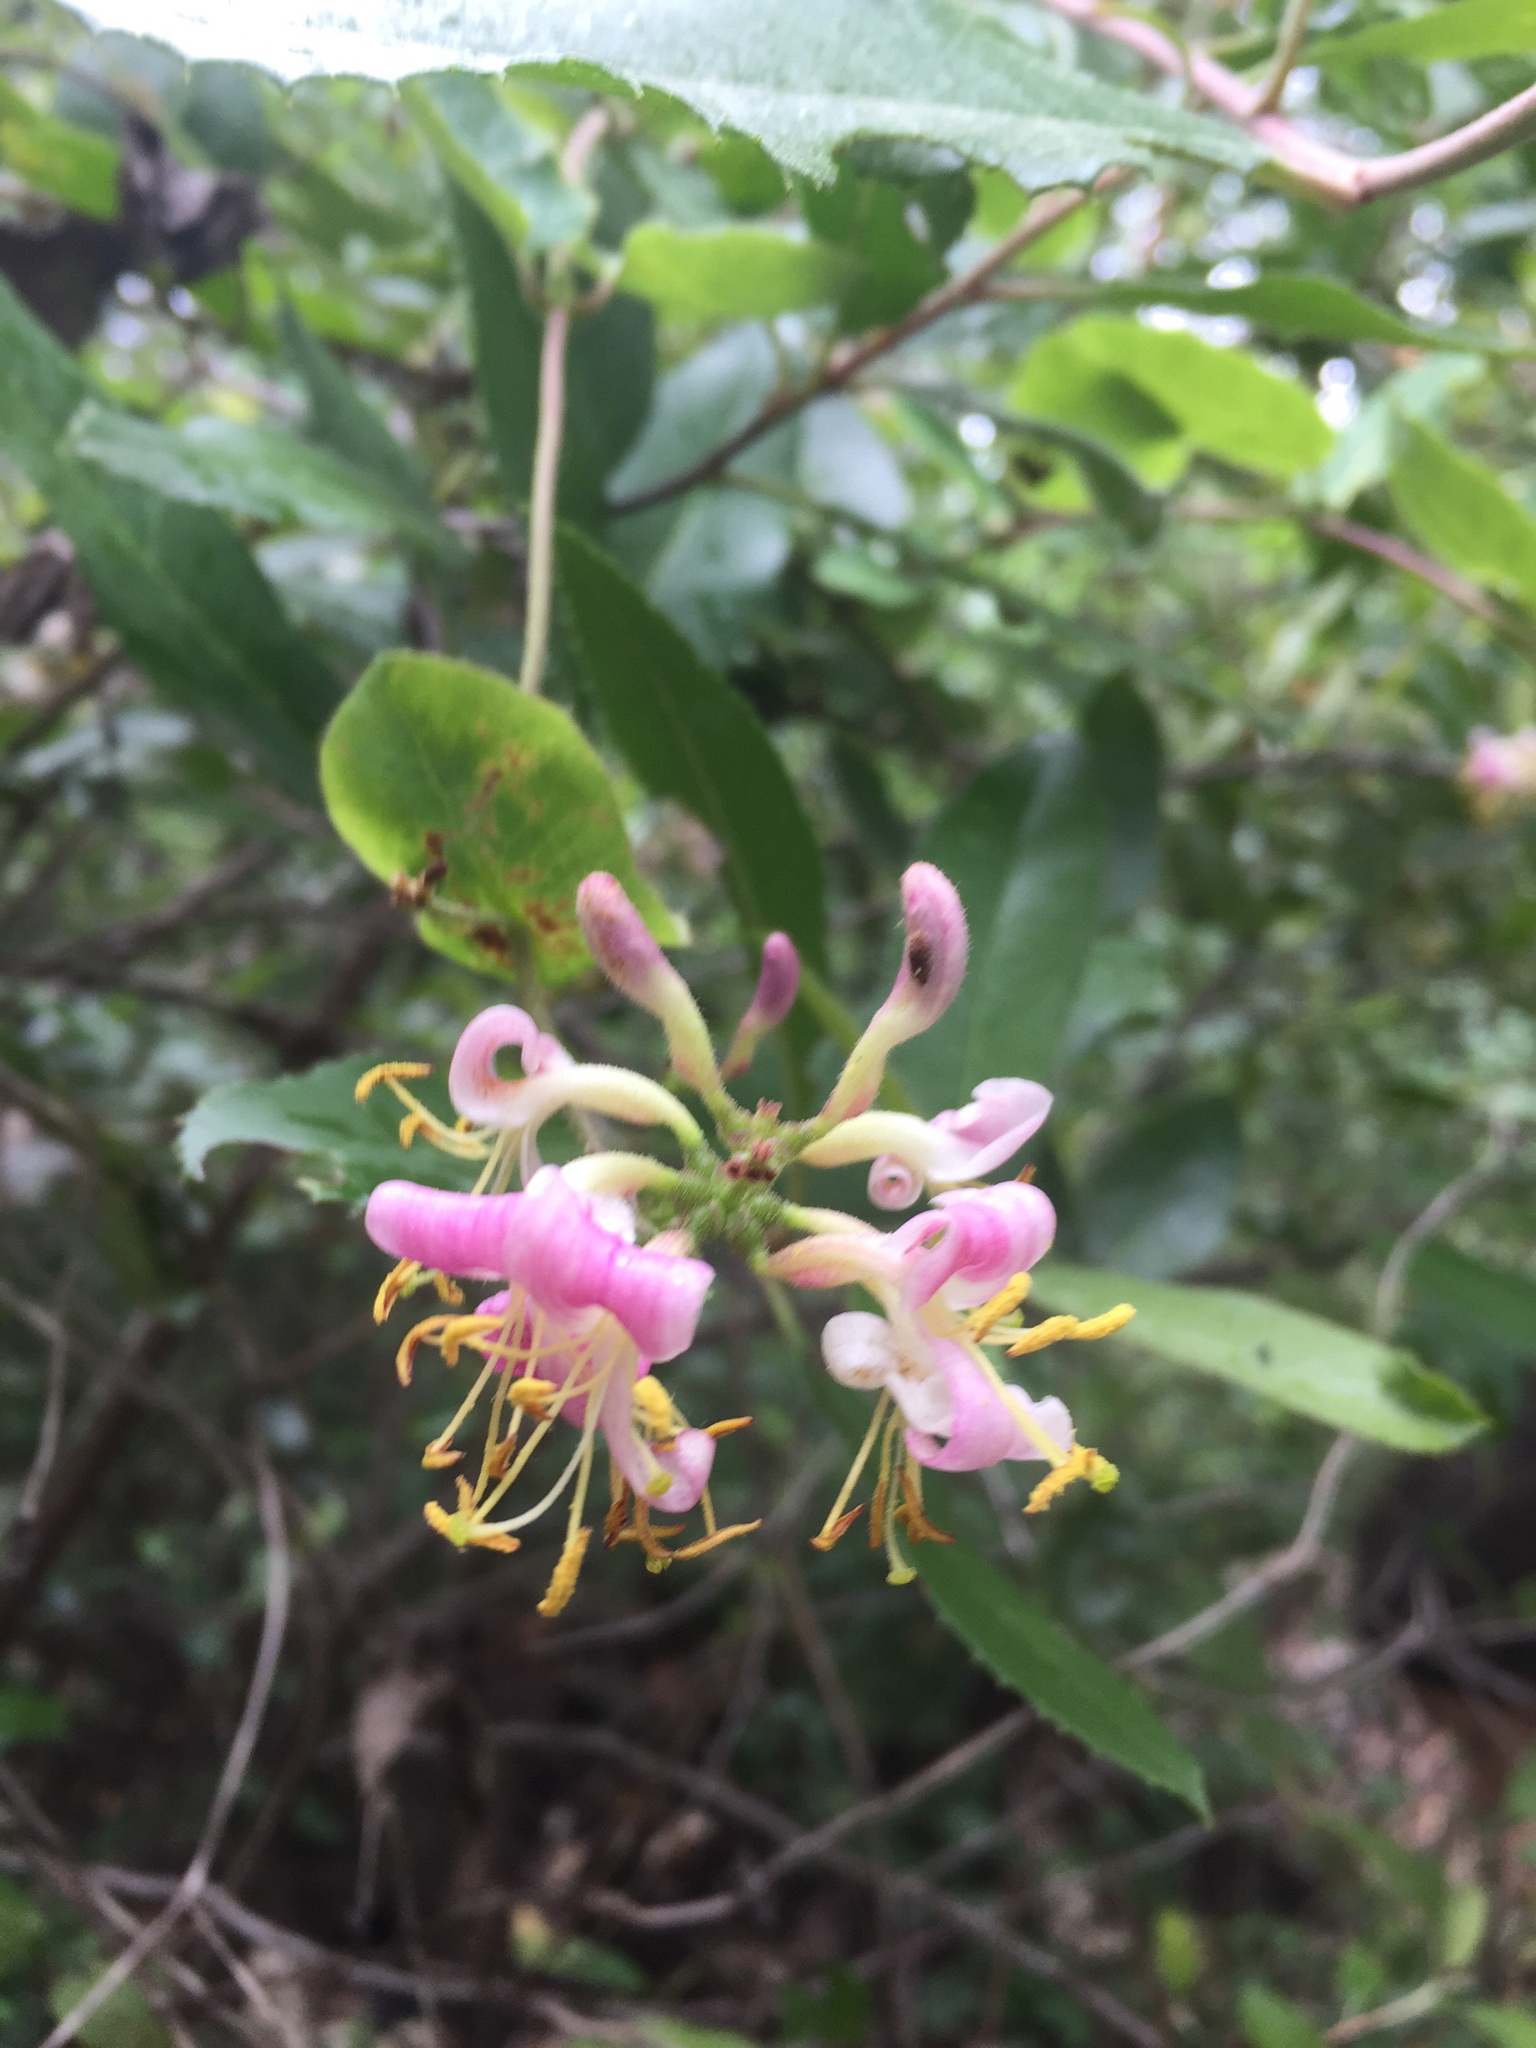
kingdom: Plantae
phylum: Tracheophyta
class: Magnoliopsida
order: Dipsacales
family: Caprifoliaceae
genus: Lonicera
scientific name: Lonicera hispidula
